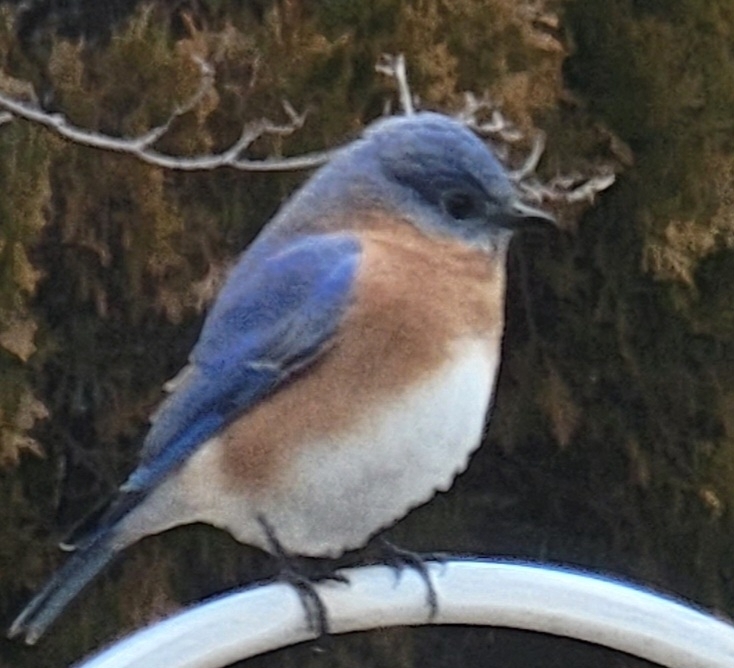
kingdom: Animalia
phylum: Chordata
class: Aves
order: Passeriformes
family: Turdidae
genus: Sialia
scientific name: Sialia sialis
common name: Eastern bluebird
